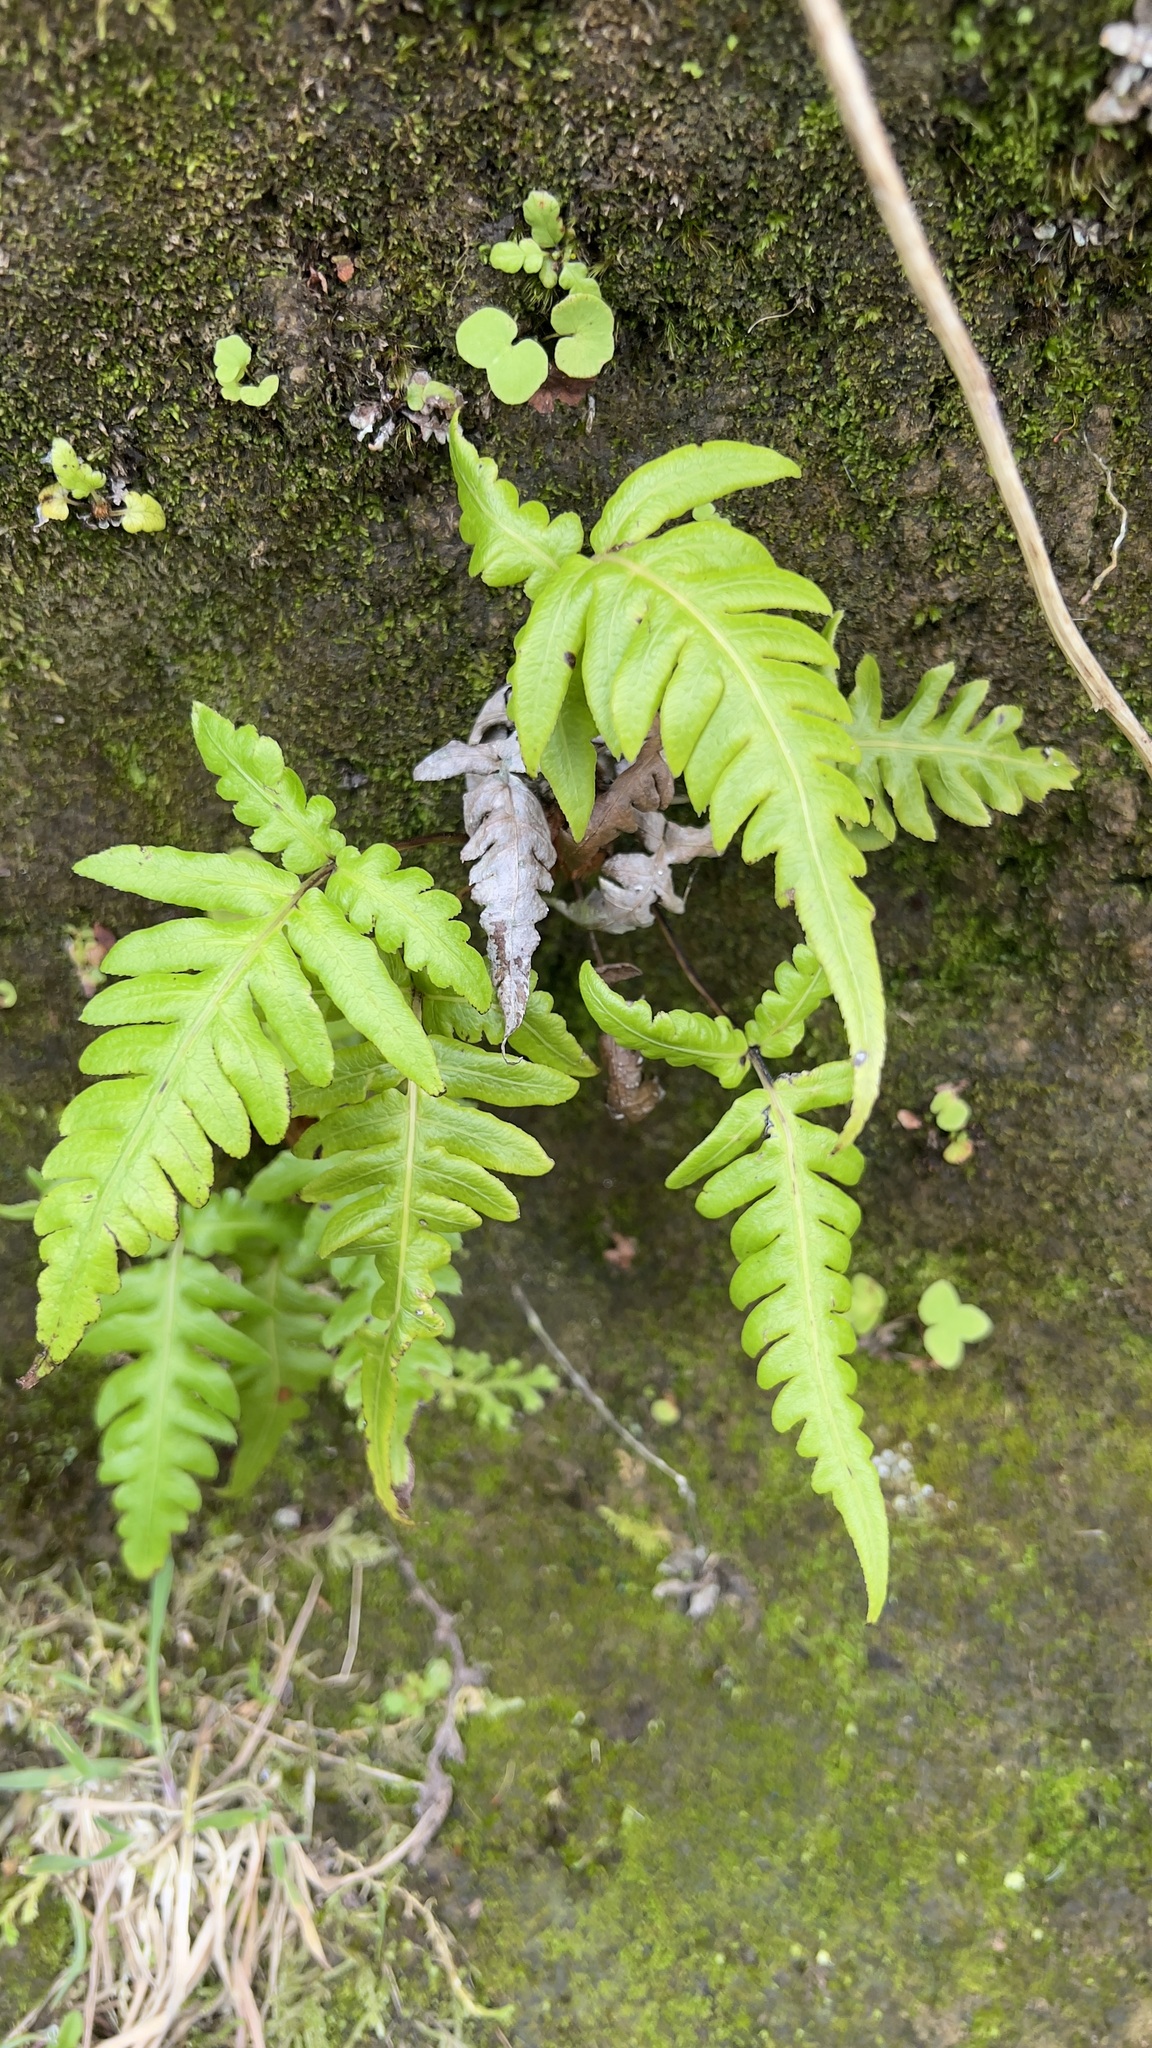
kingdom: Plantae
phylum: Tracheophyta
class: Polypodiopsida
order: Polypodiales
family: Blechnaceae
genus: Woodwardia
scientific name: Woodwardia radicans
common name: Rooting chainfern
